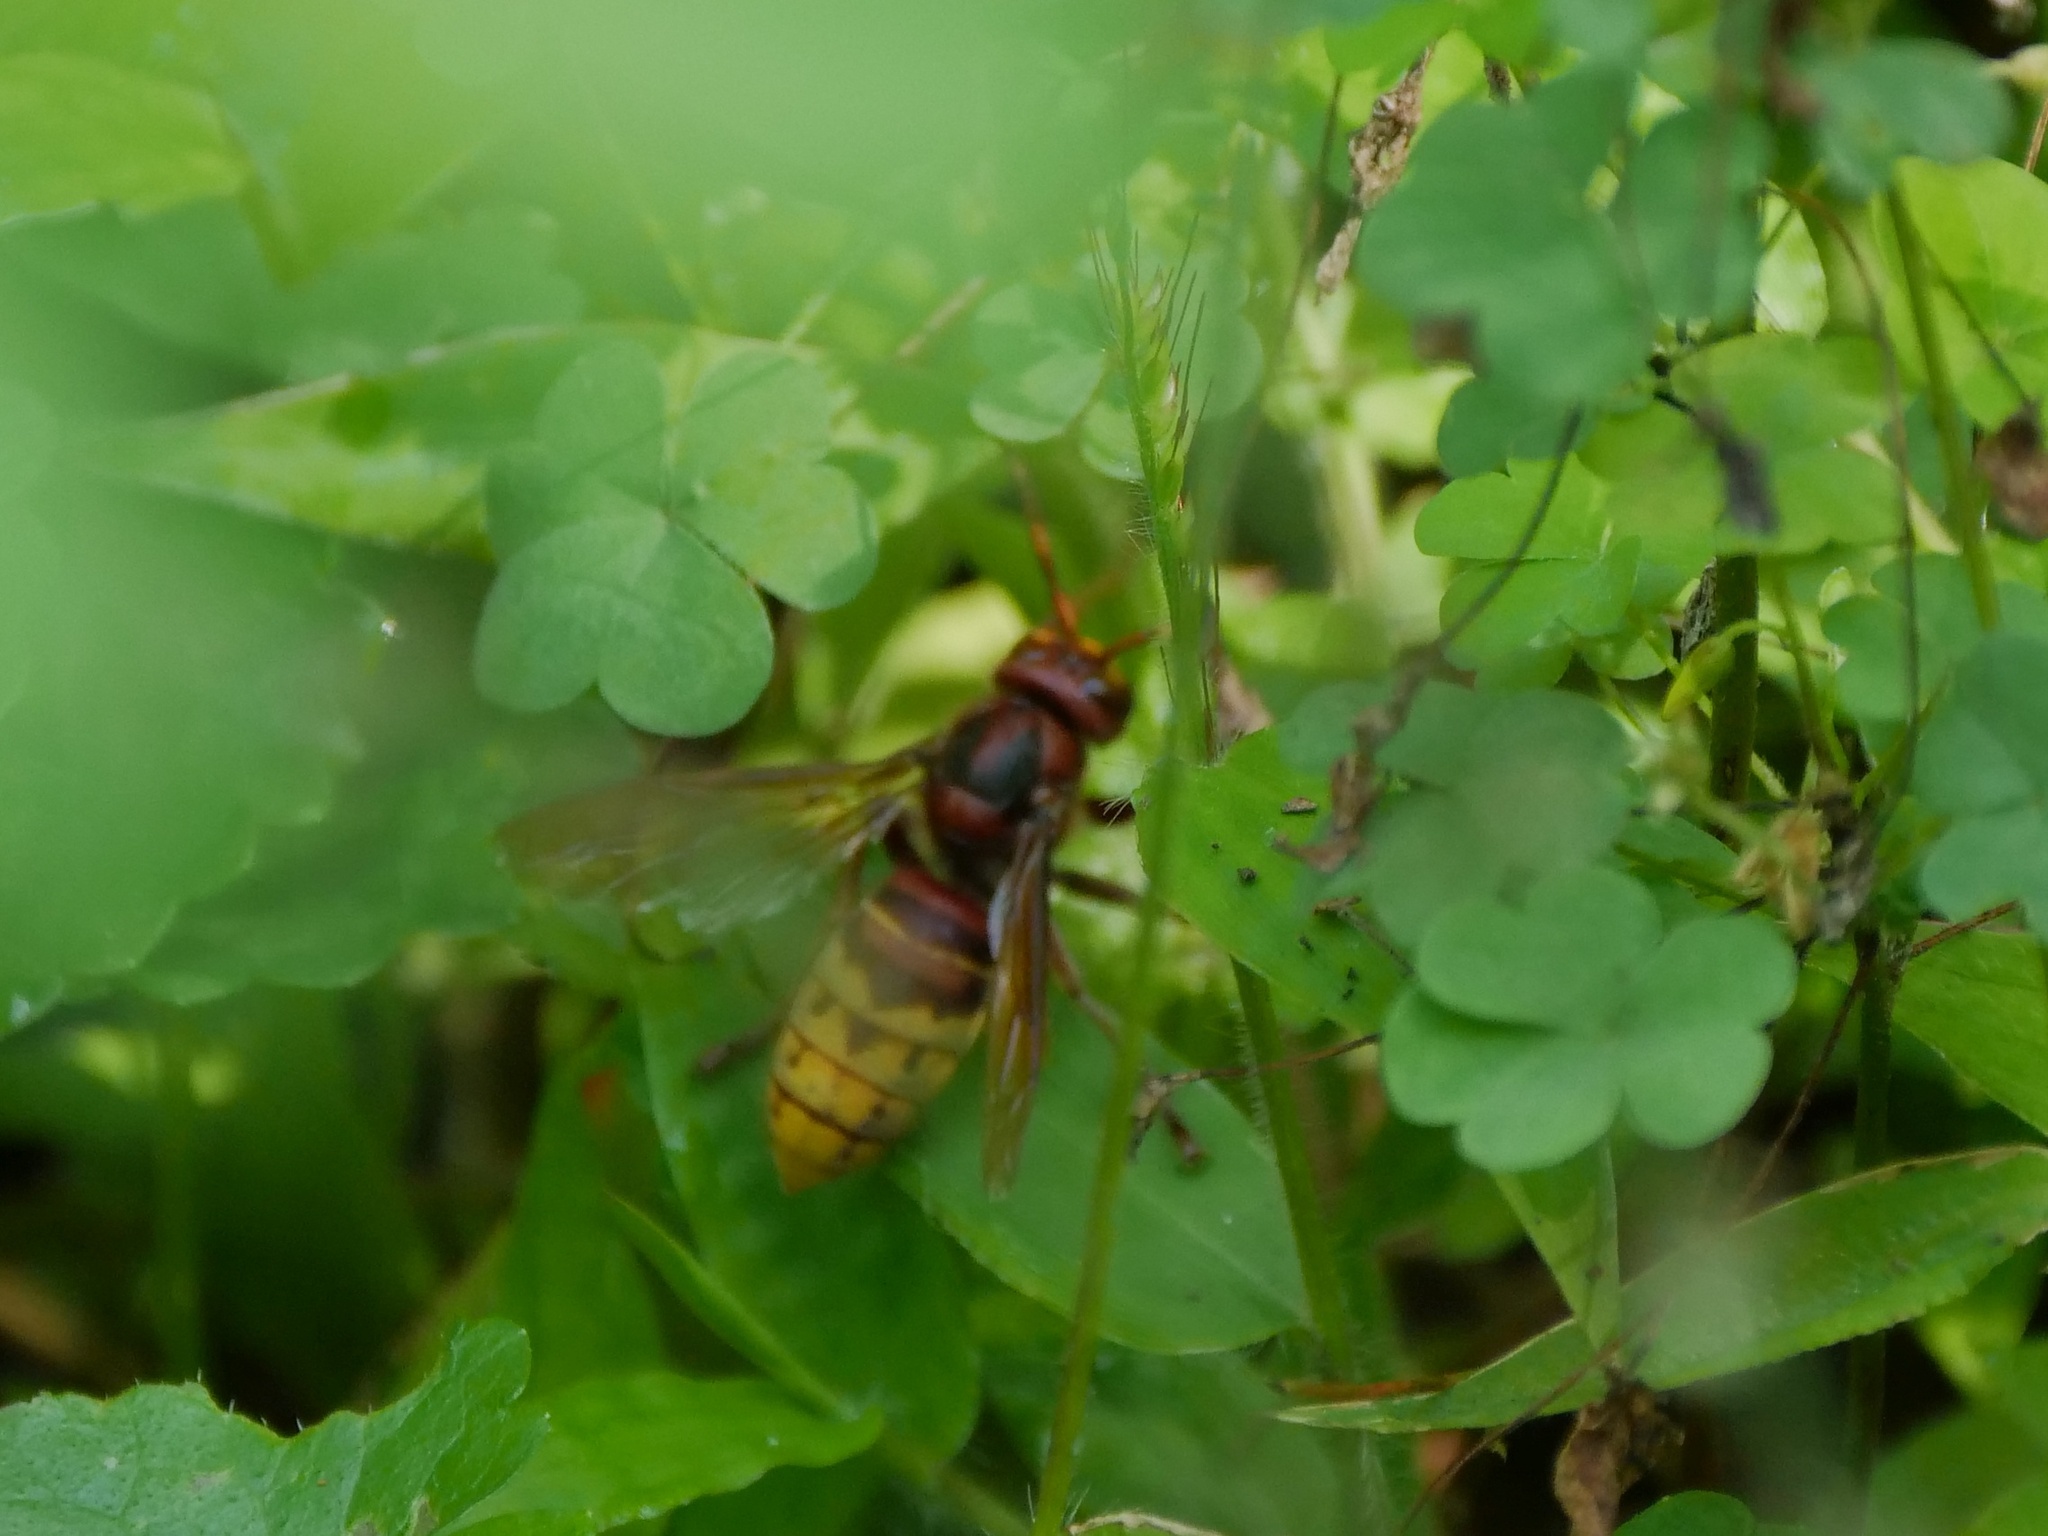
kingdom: Animalia
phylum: Arthropoda
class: Insecta
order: Hymenoptera
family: Vespidae
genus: Vespa
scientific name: Vespa crabro
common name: Hornet
